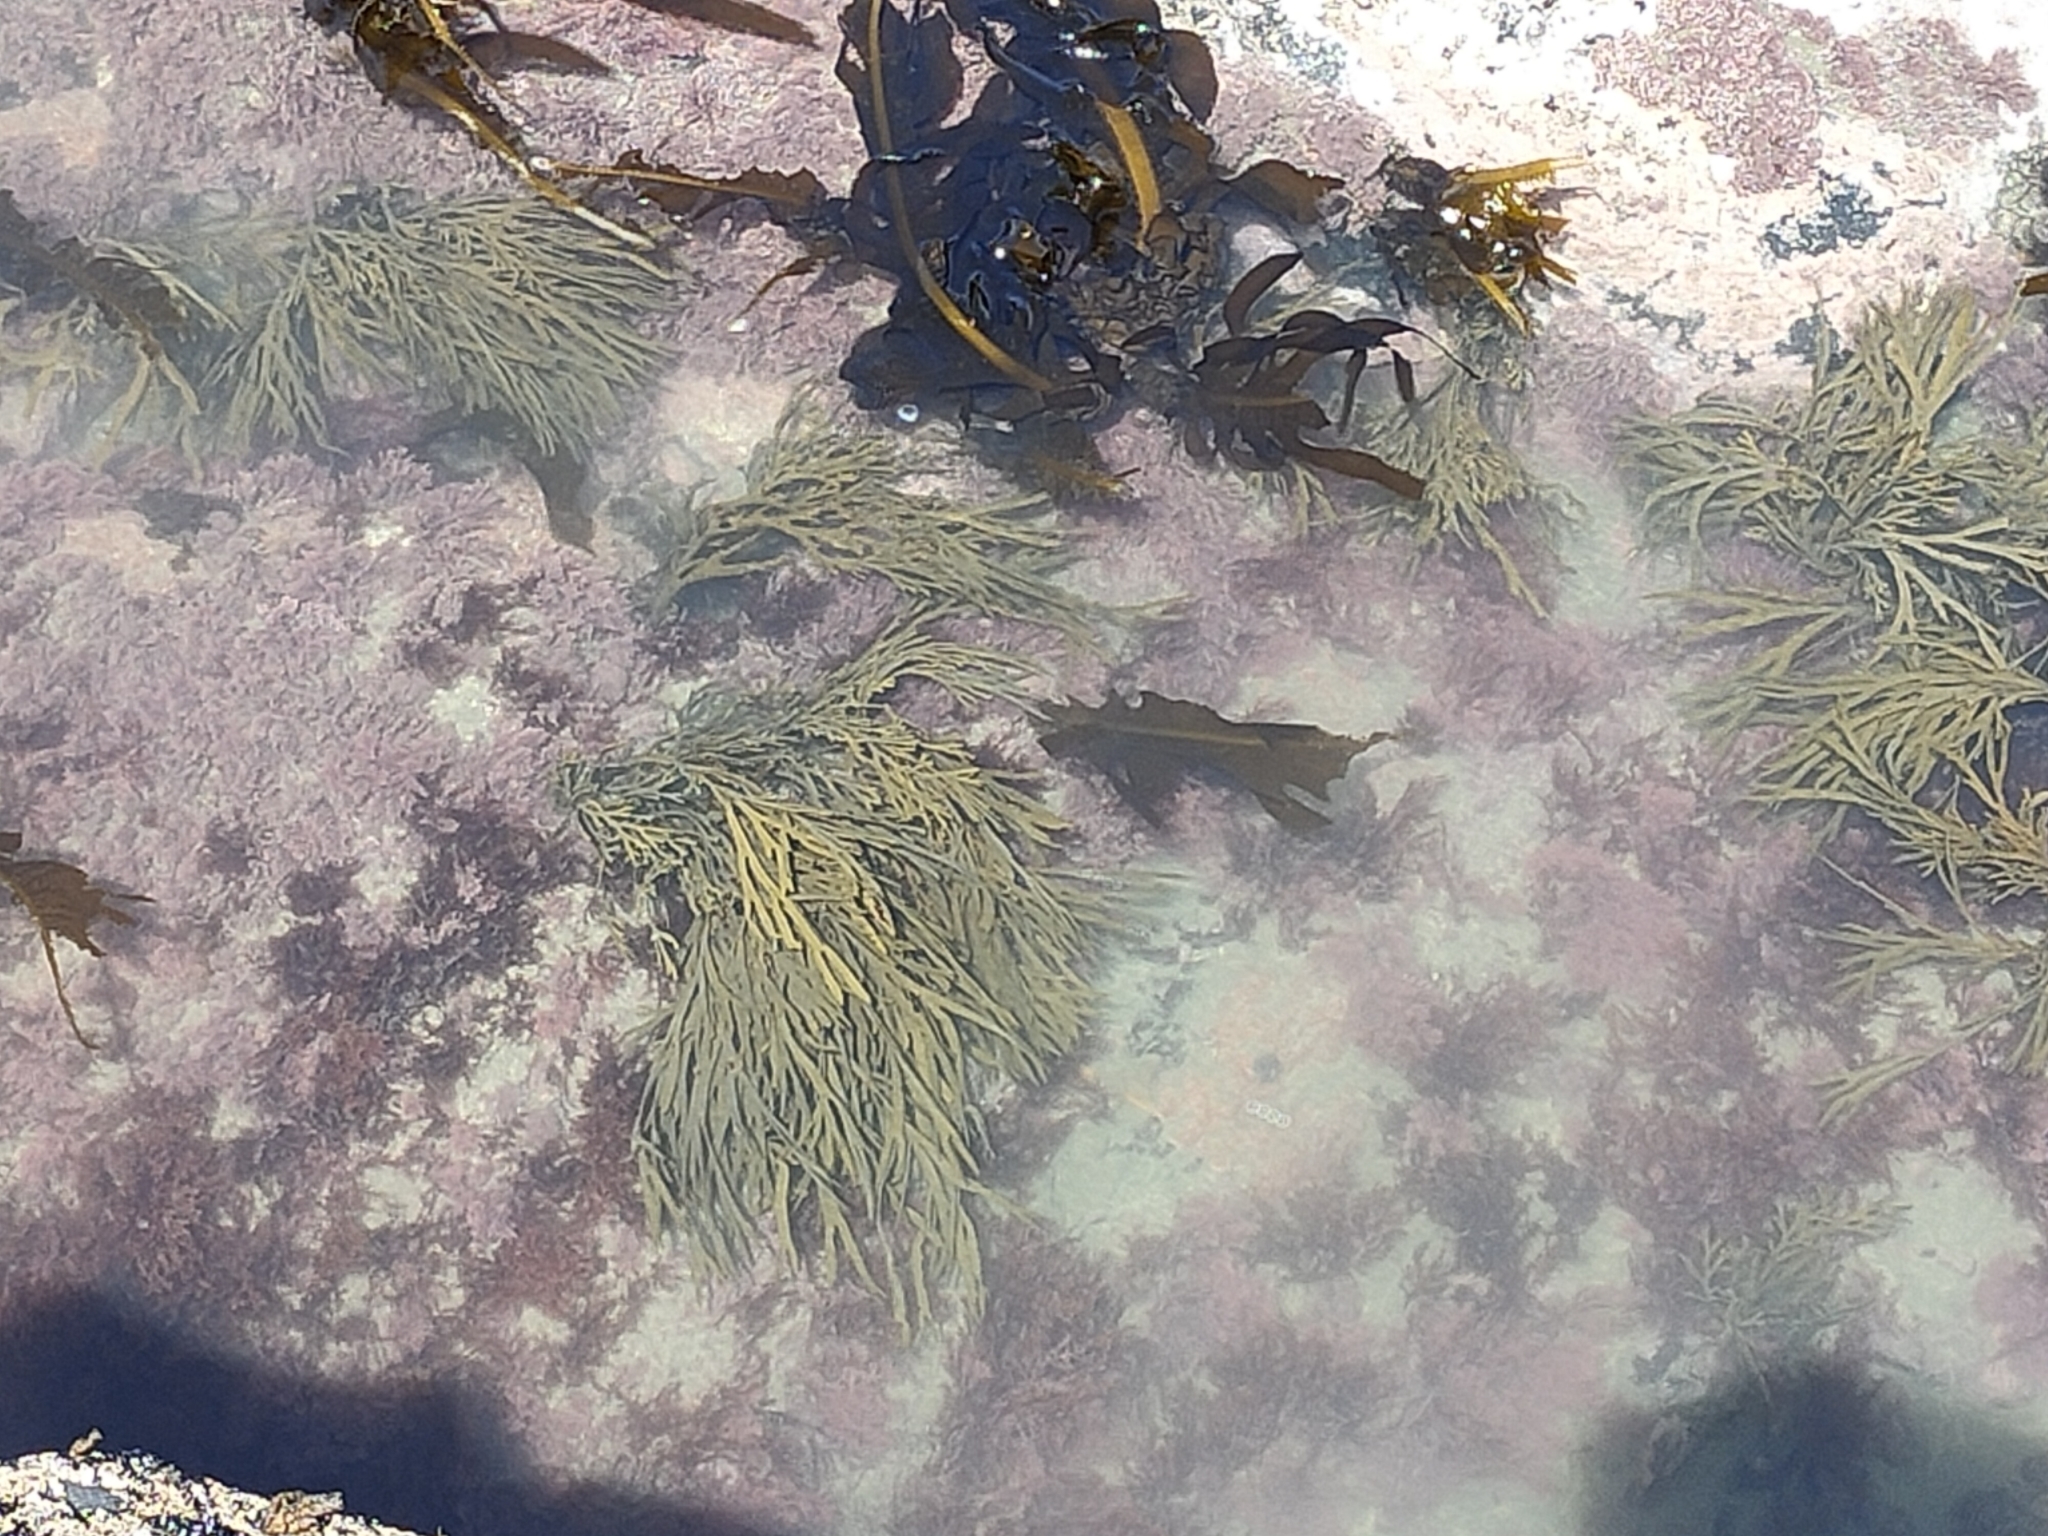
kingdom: Chromista
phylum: Ochrophyta
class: Phaeophyceae
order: Fucales
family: Xiphophoraceae
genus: Xiphophora
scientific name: Xiphophora gladiata
